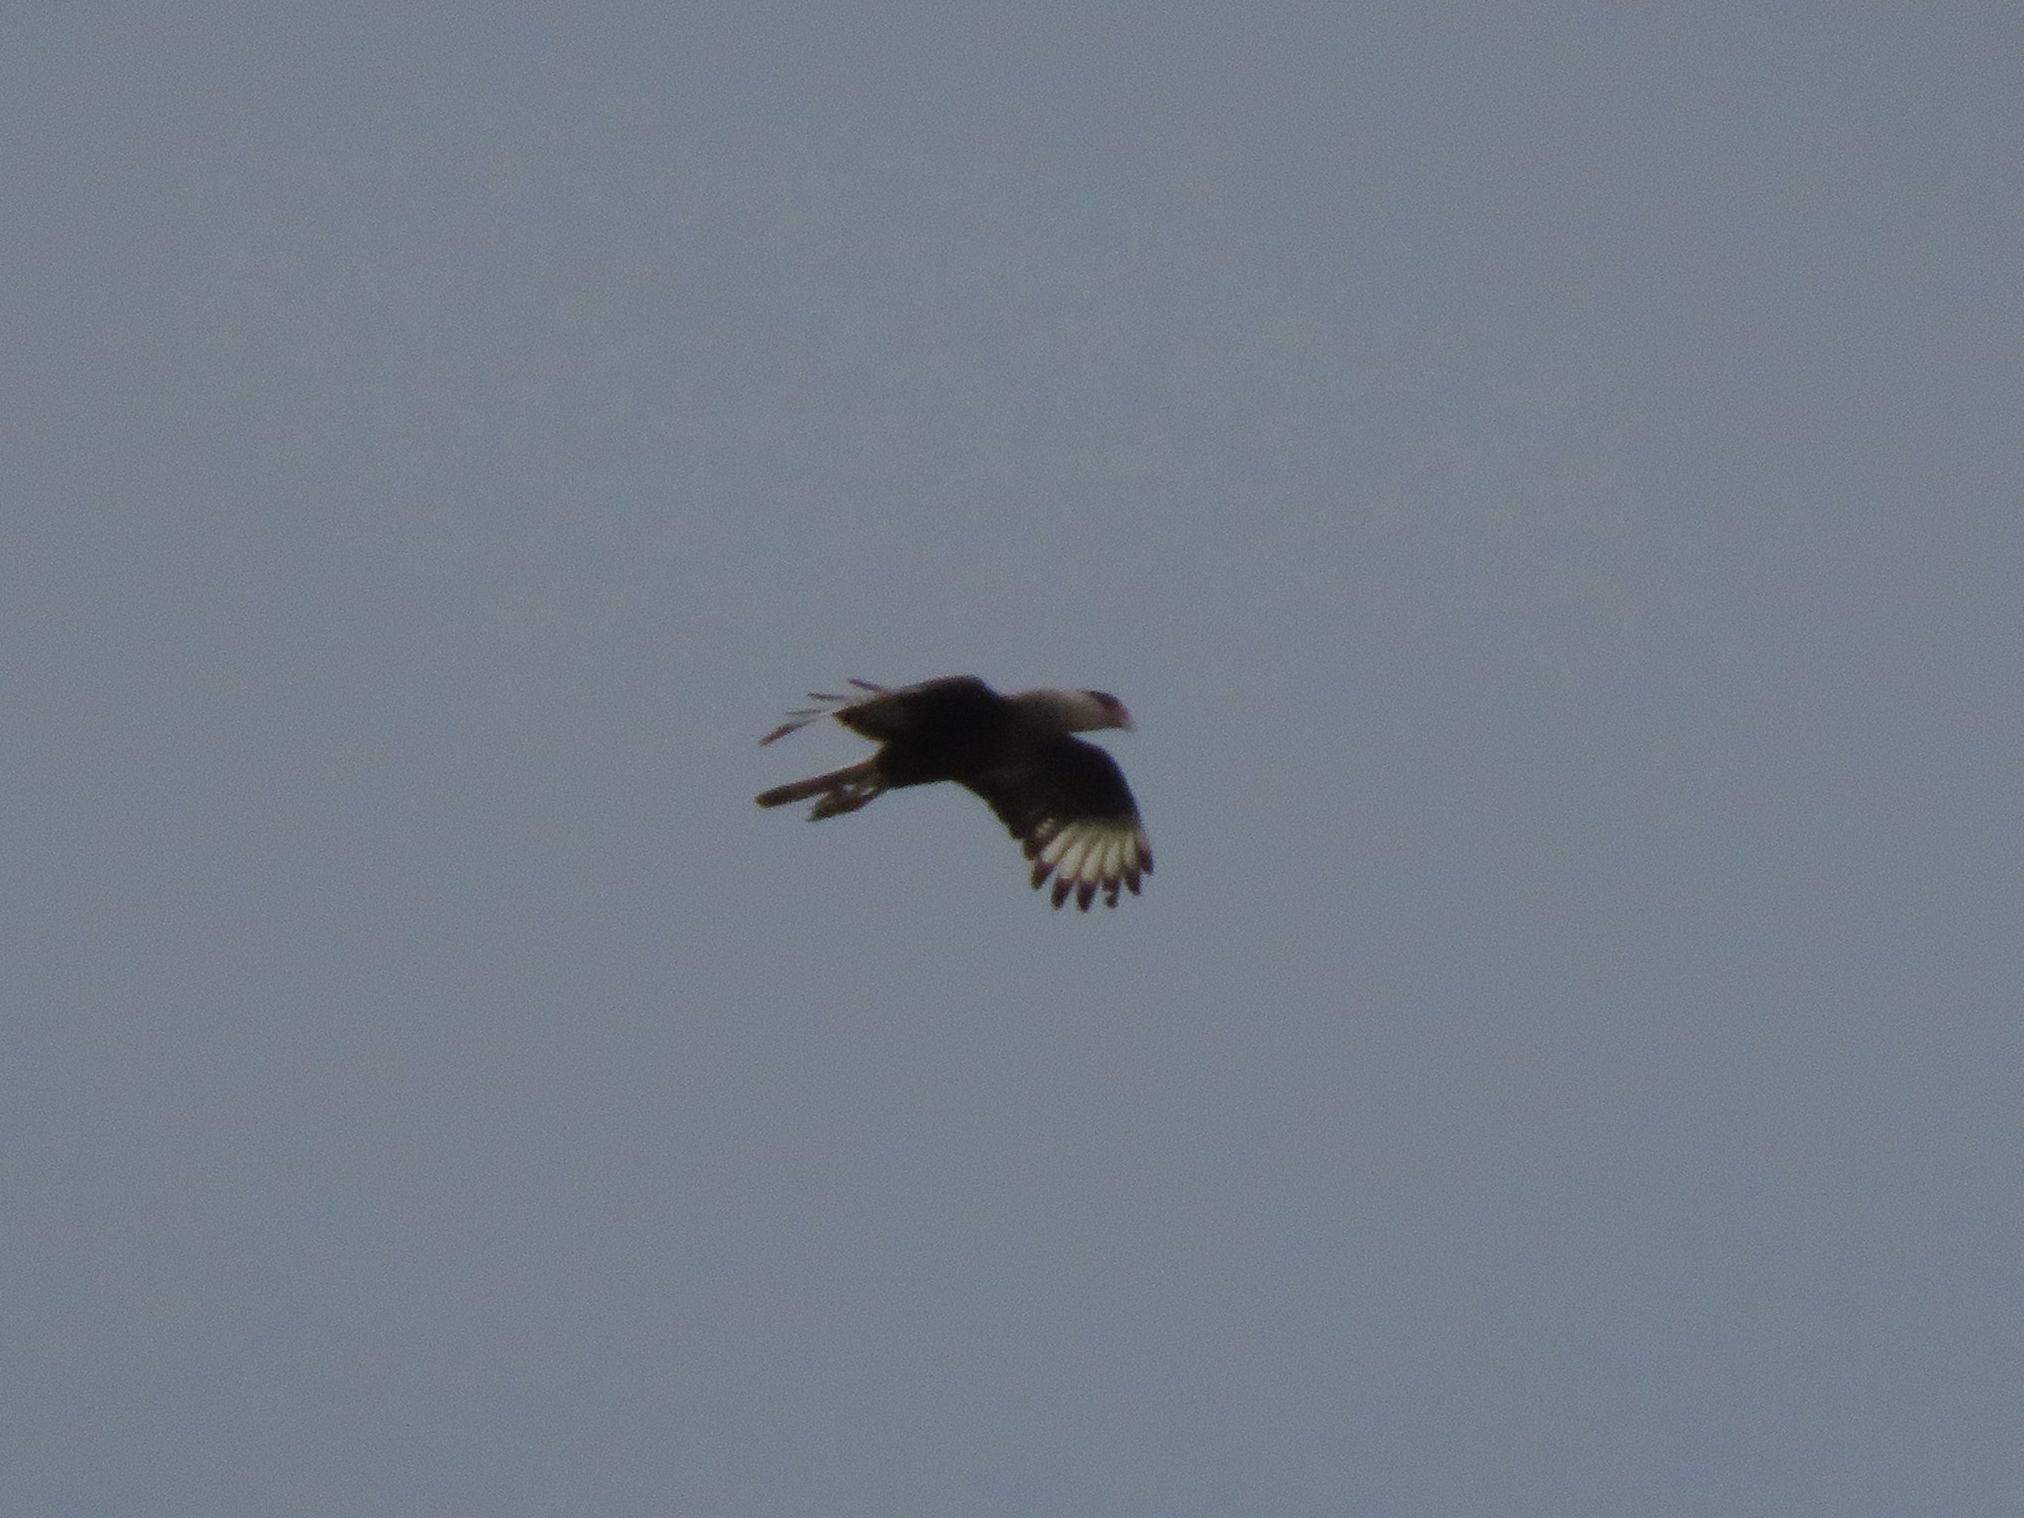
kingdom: Animalia
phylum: Chordata
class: Aves
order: Falconiformes
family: Falconidae
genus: Caracara
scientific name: Caracara plancus
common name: Southern caracara
